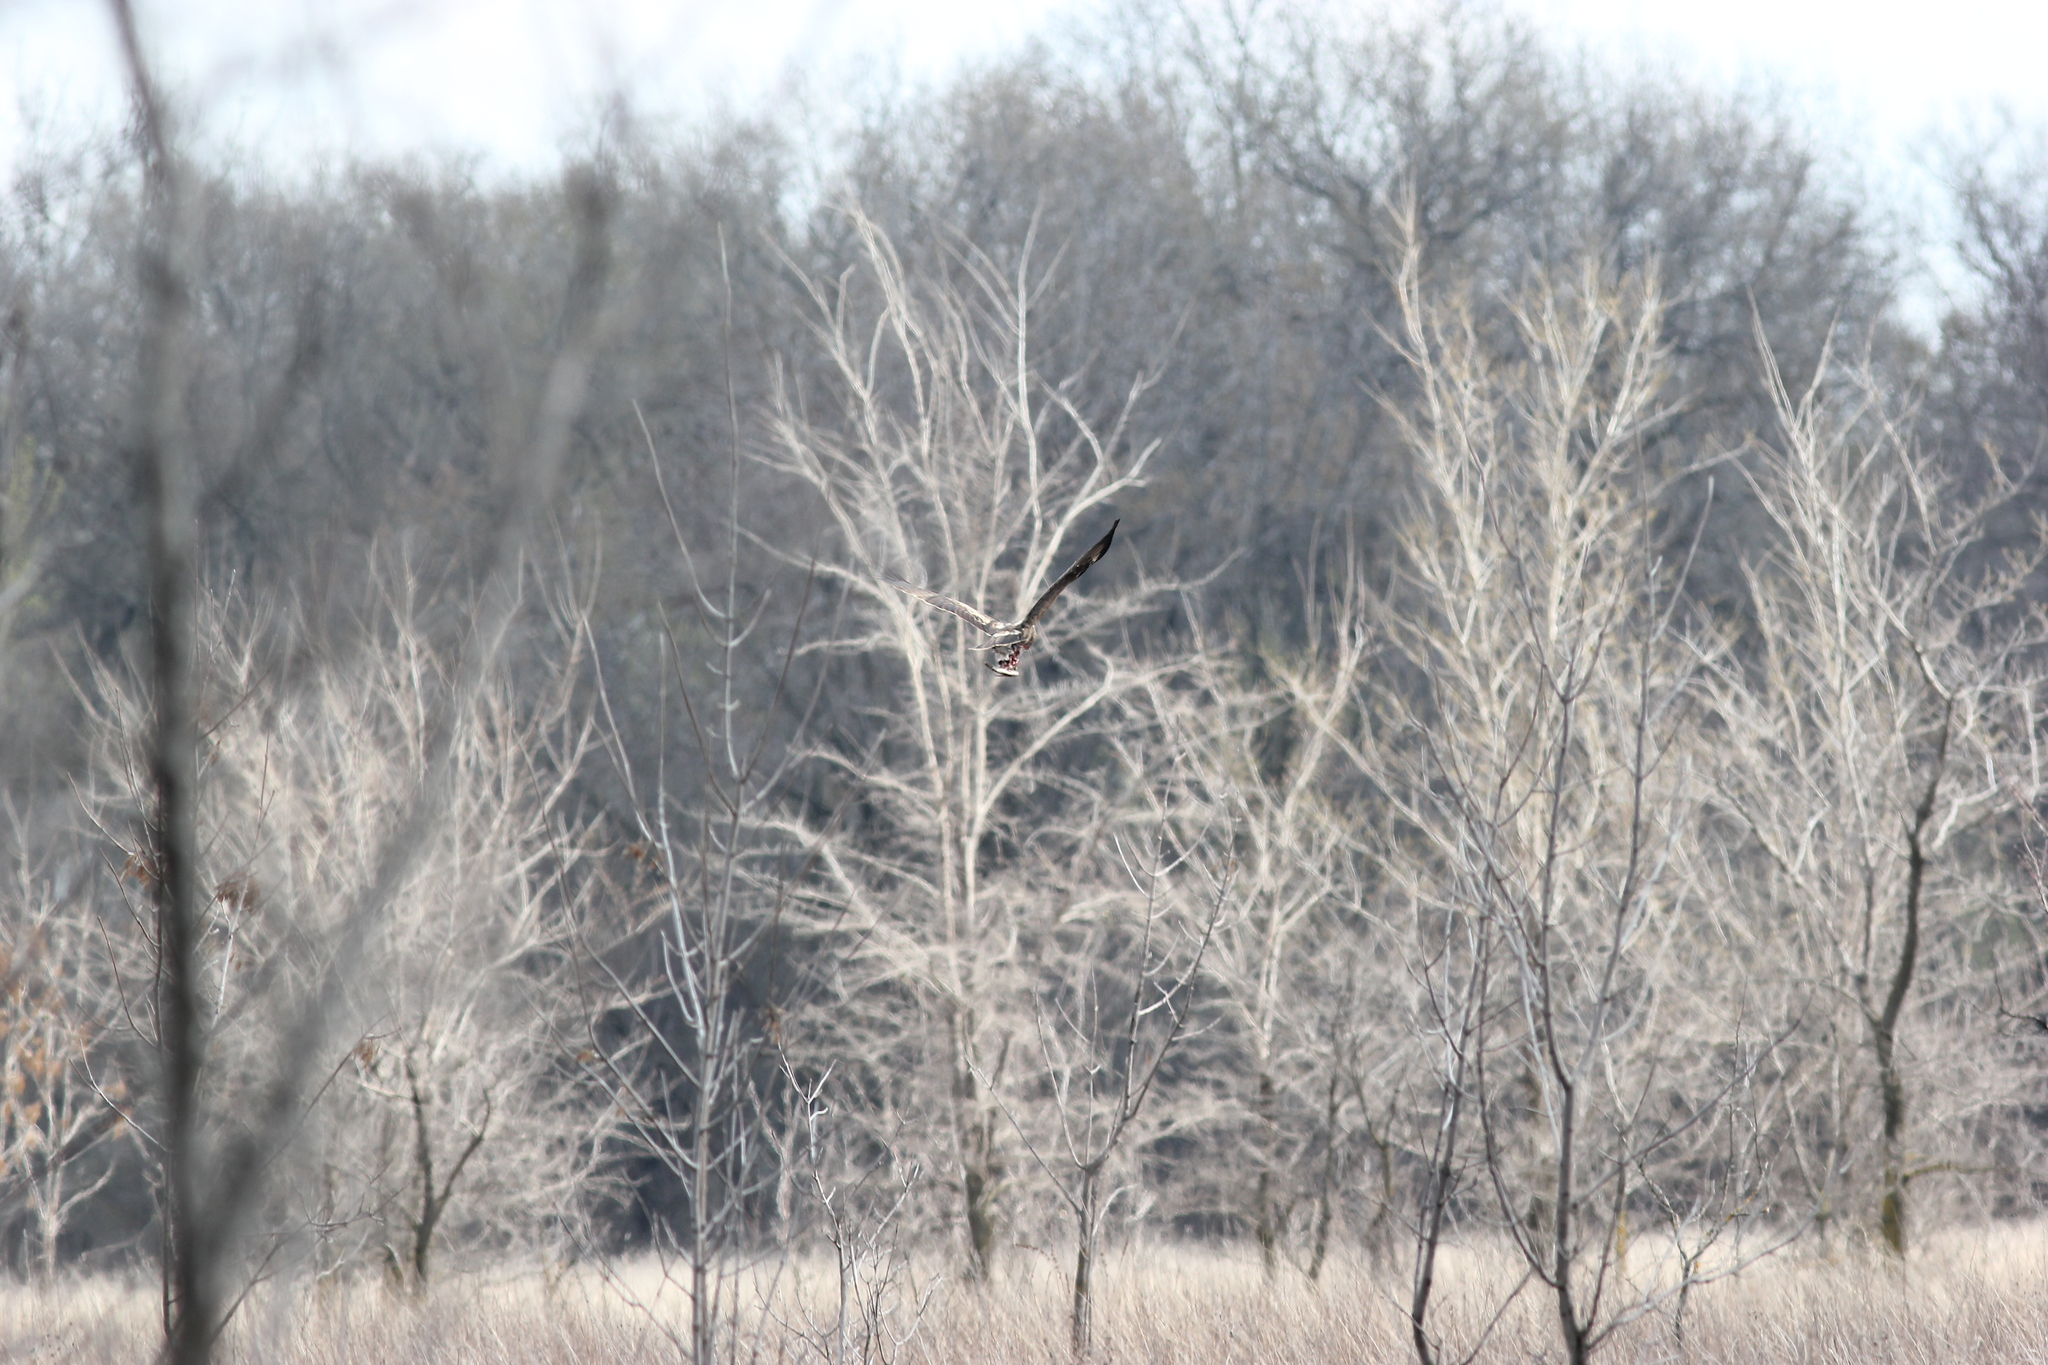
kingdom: Animalia
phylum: Chordata
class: Aves
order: Accipitriformes
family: Accipitridae
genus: Hieraaetus
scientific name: Hieraaetus pennatus
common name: Booted eagle
